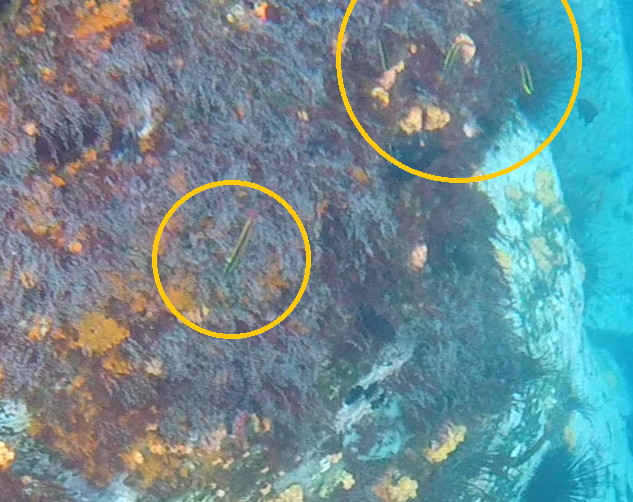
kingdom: Animalia
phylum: Chordata
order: Perciformes
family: Labridae
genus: Thalassoma
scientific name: Thalassoma lucasanum
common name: Cortez rainbow wrasse
